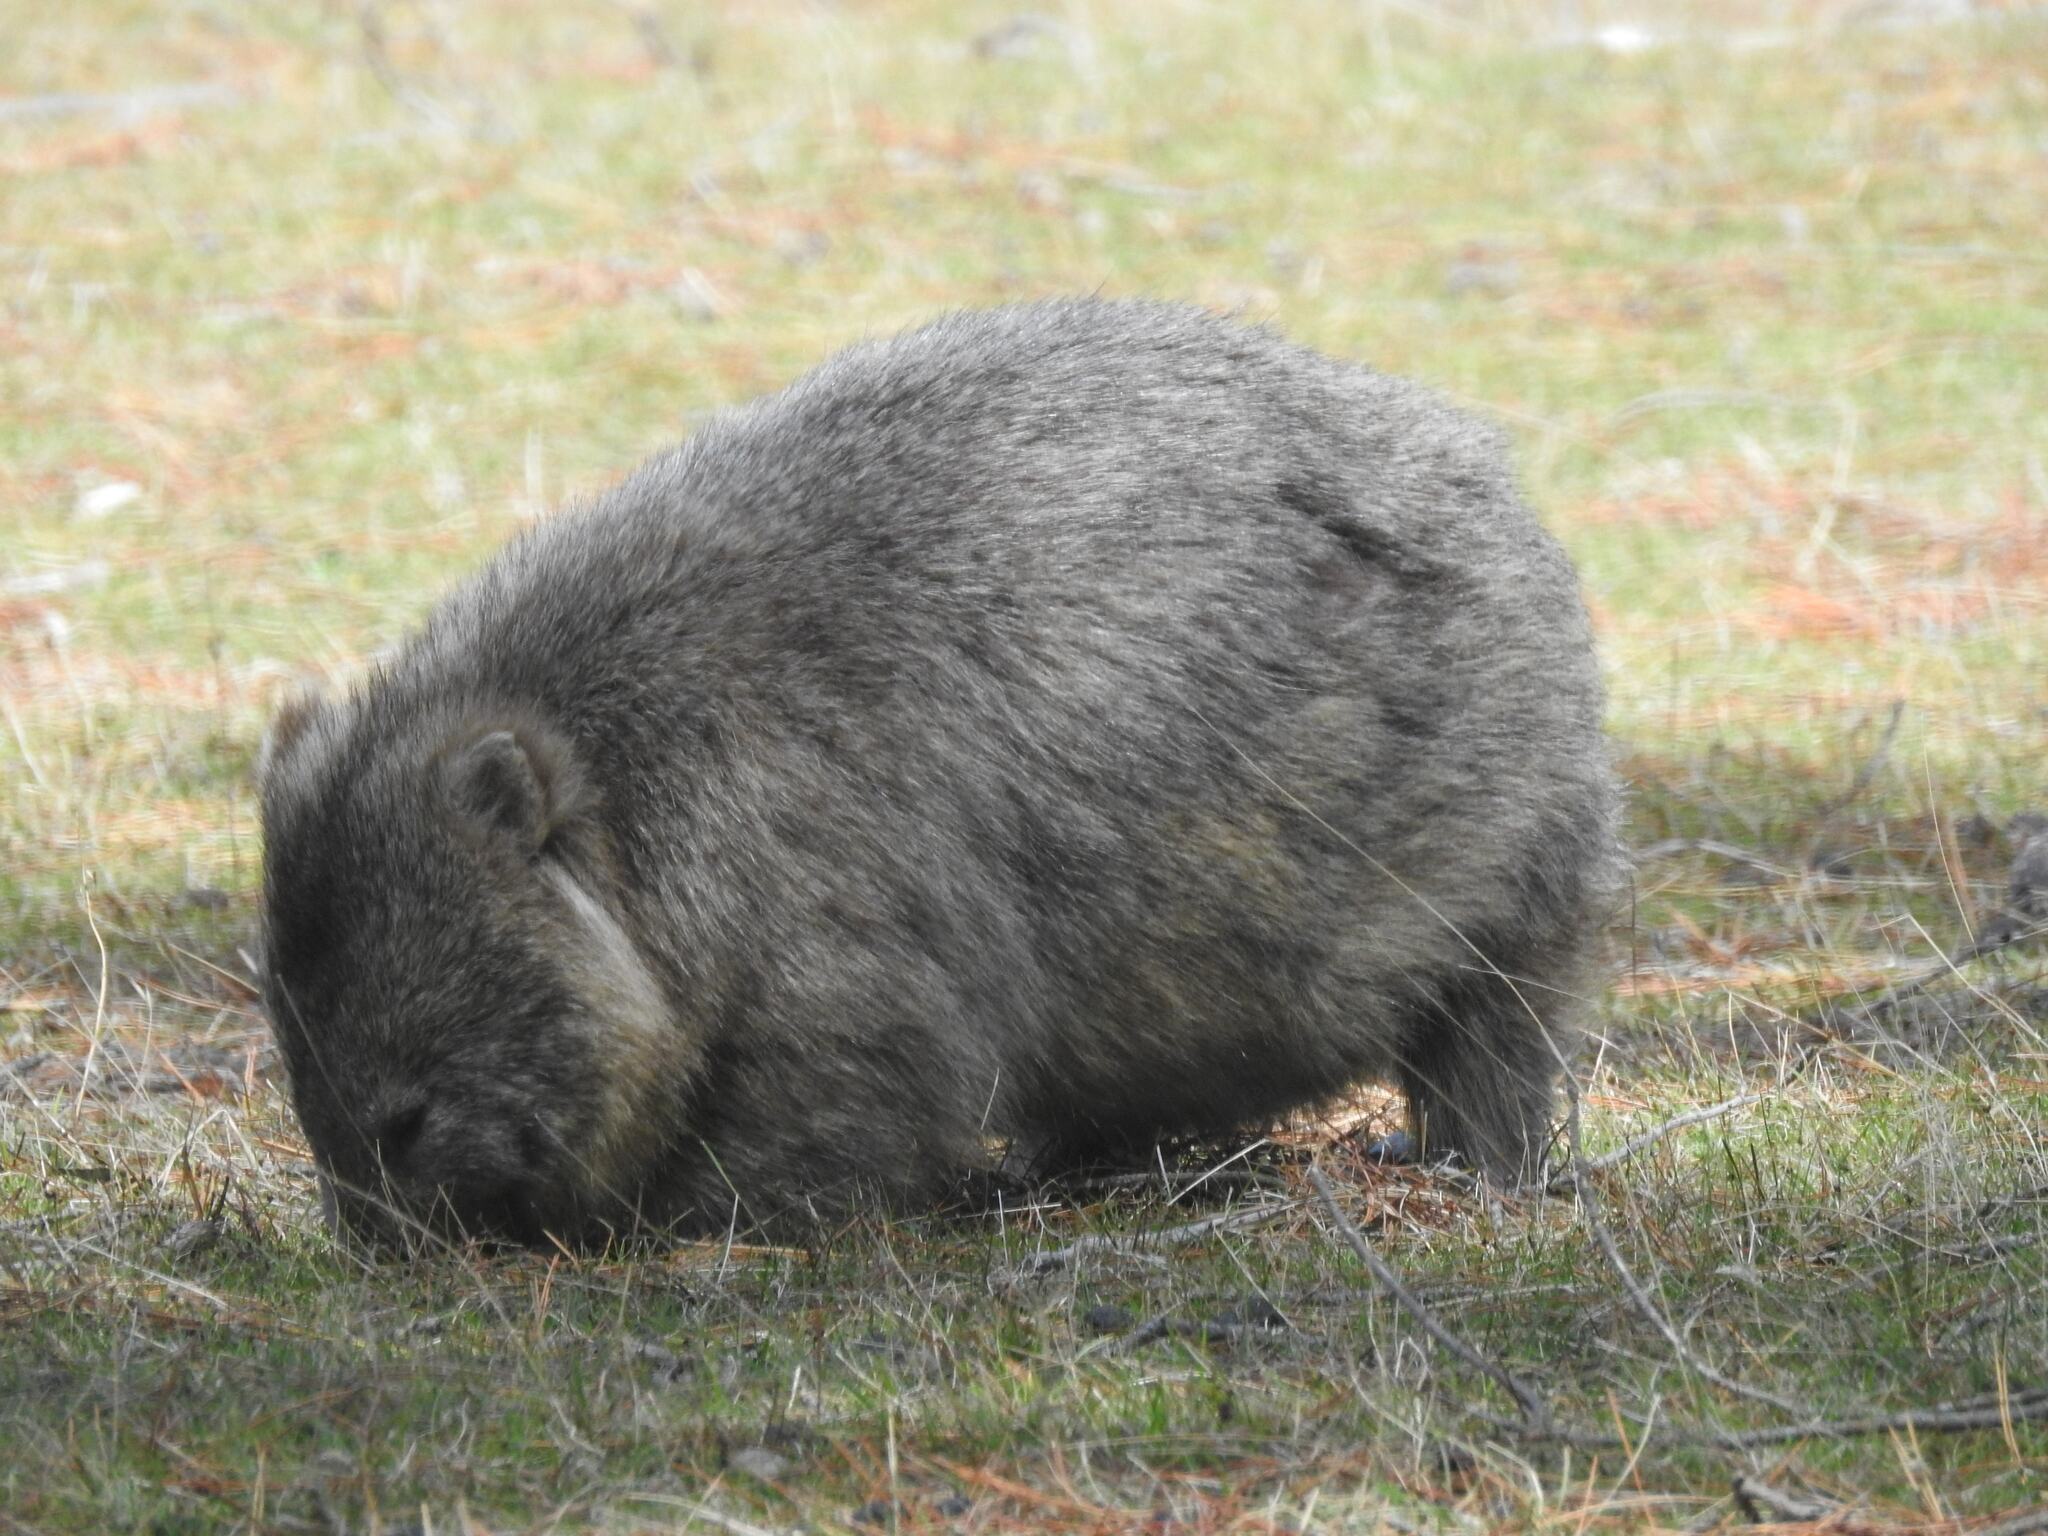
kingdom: Animalia
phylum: Chordata
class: Mammalia
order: Diprotodontia
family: Vombatidae
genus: Vombatus
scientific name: Vombatus ursinus
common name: Common wombat
